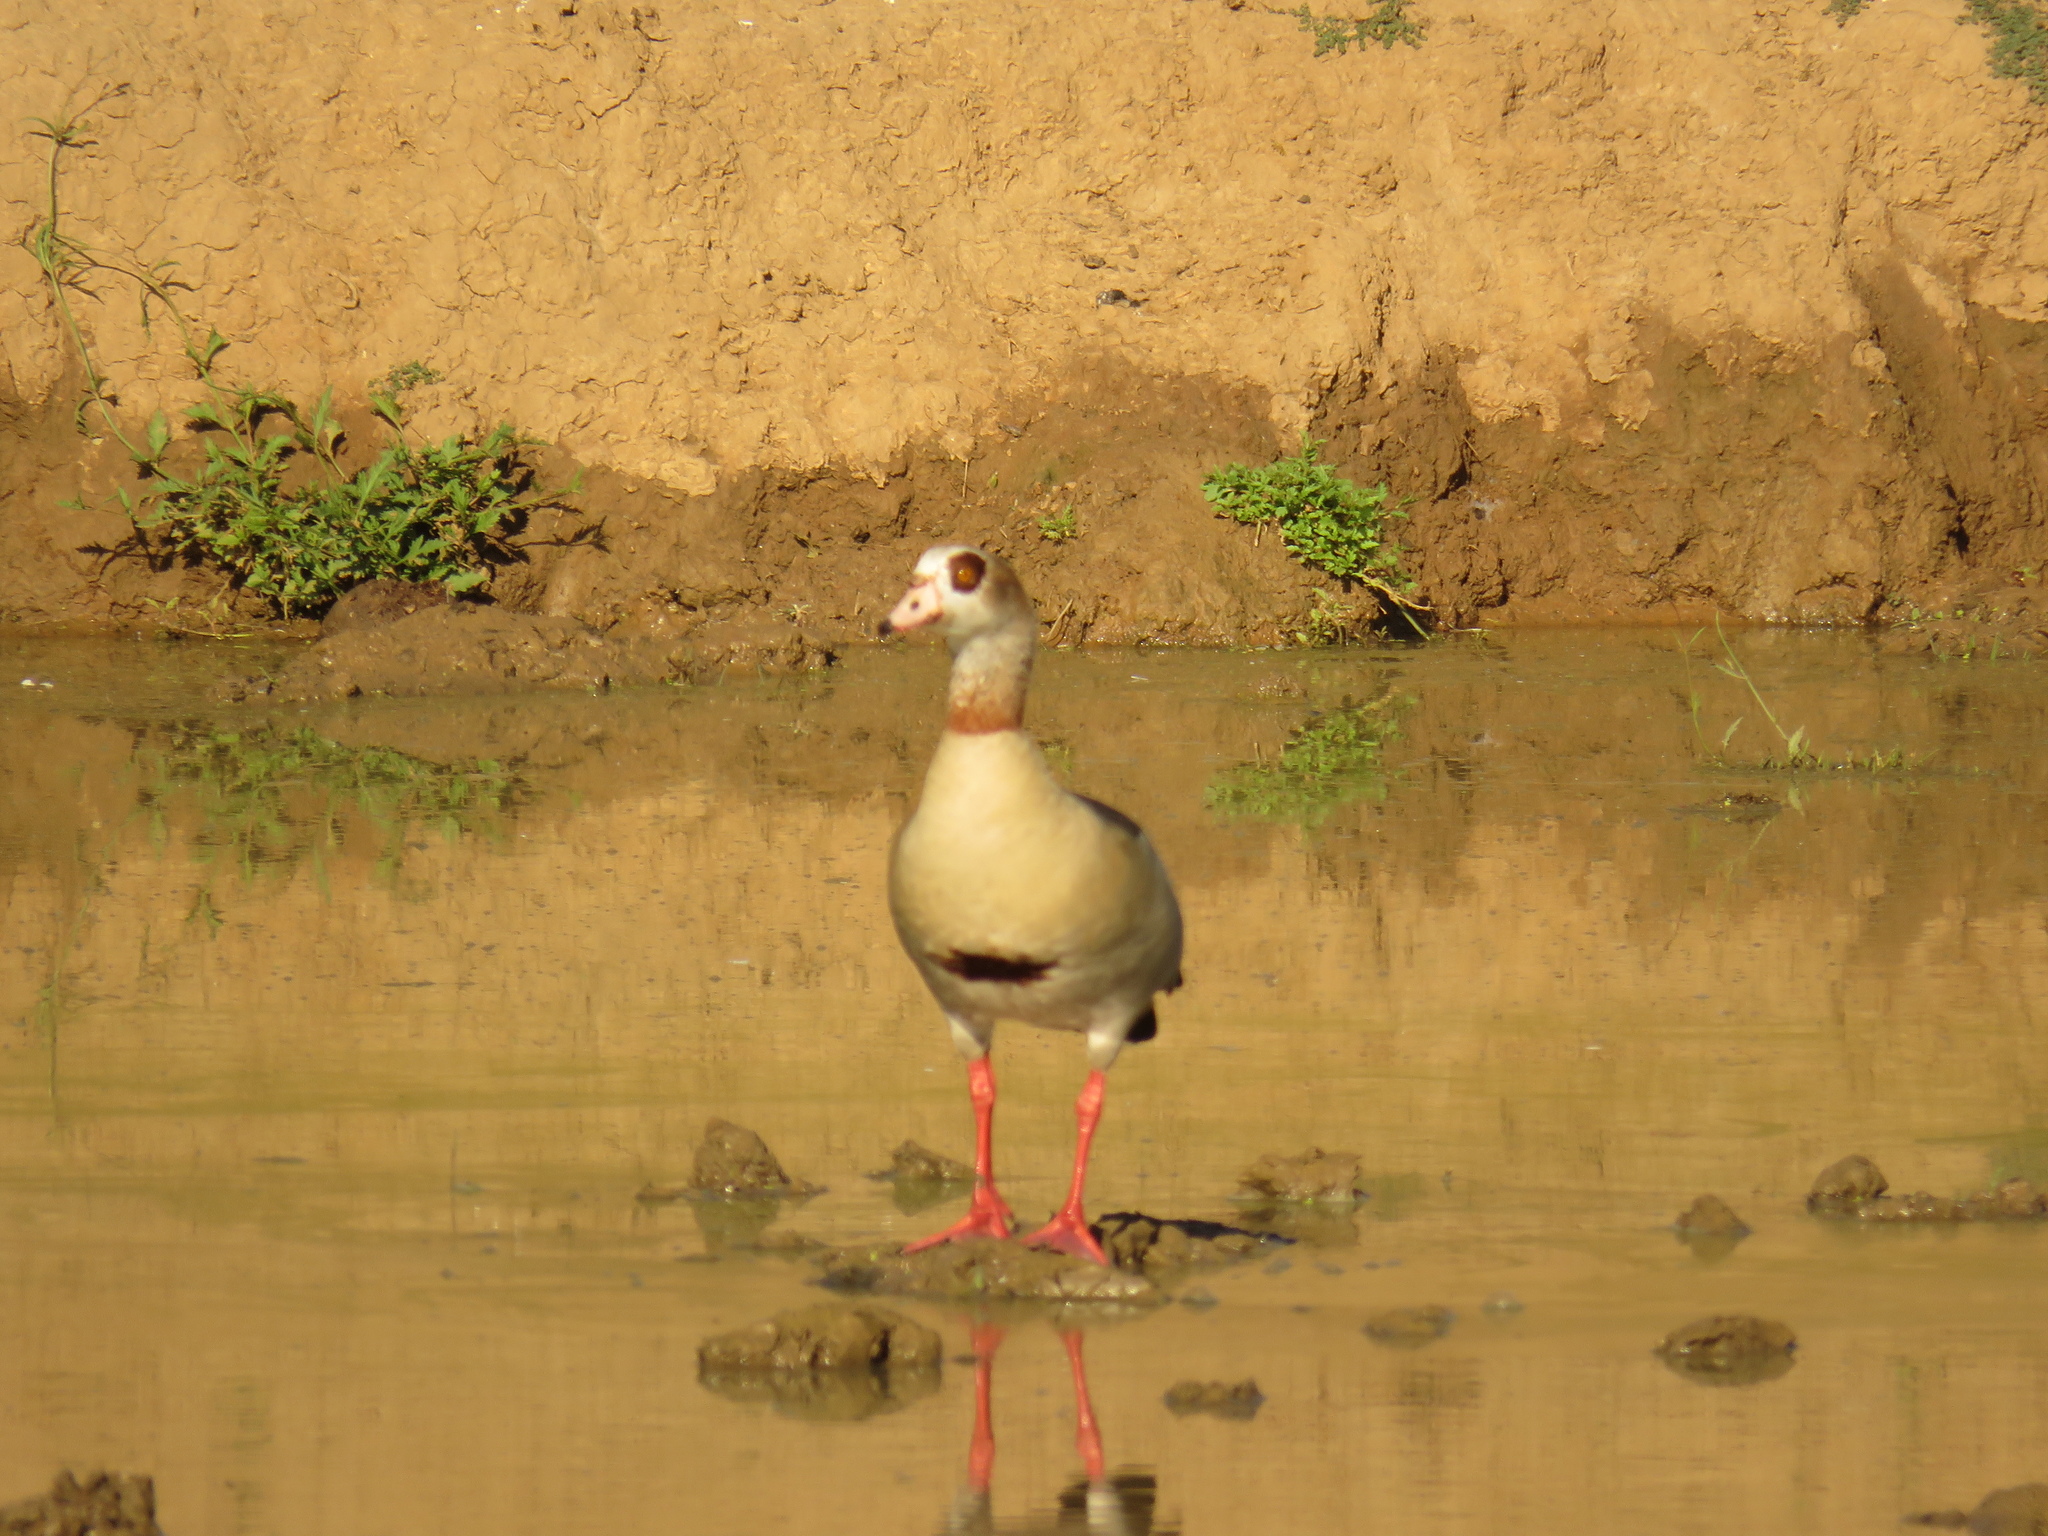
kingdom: Animalia
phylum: Chordata
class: Aves
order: Anseriformes
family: Anatidae
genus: Alopochen
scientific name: Alopochen aegyptiaca
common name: Egyptian goose
